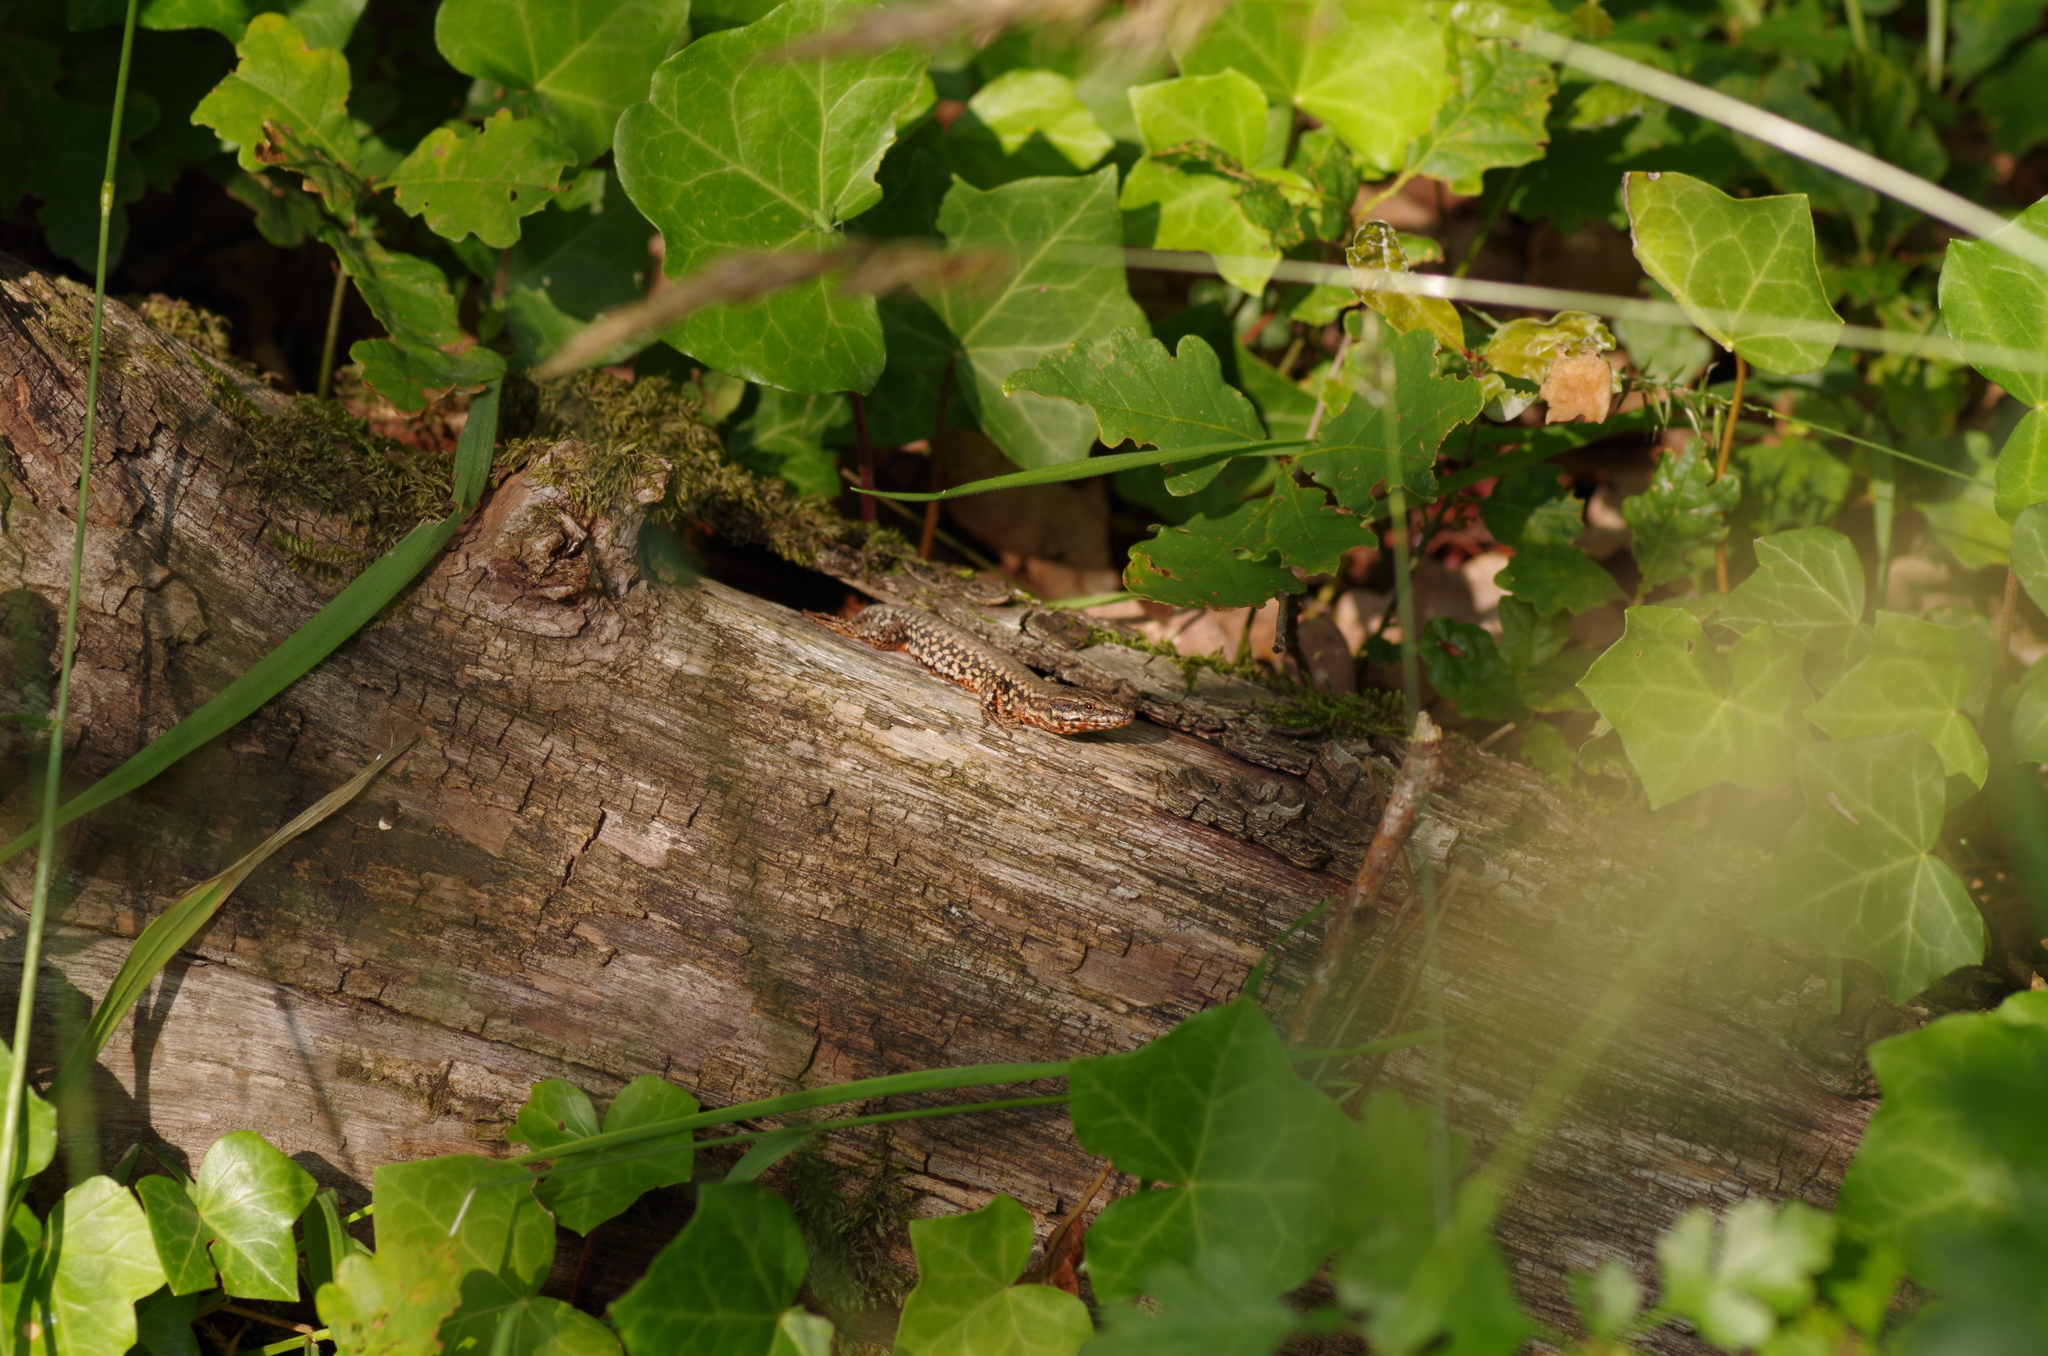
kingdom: Animalia
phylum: Chordata
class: Squamata
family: Lacertidae
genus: Podarcis
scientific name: Podarcis muralis
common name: Common wall lizard
